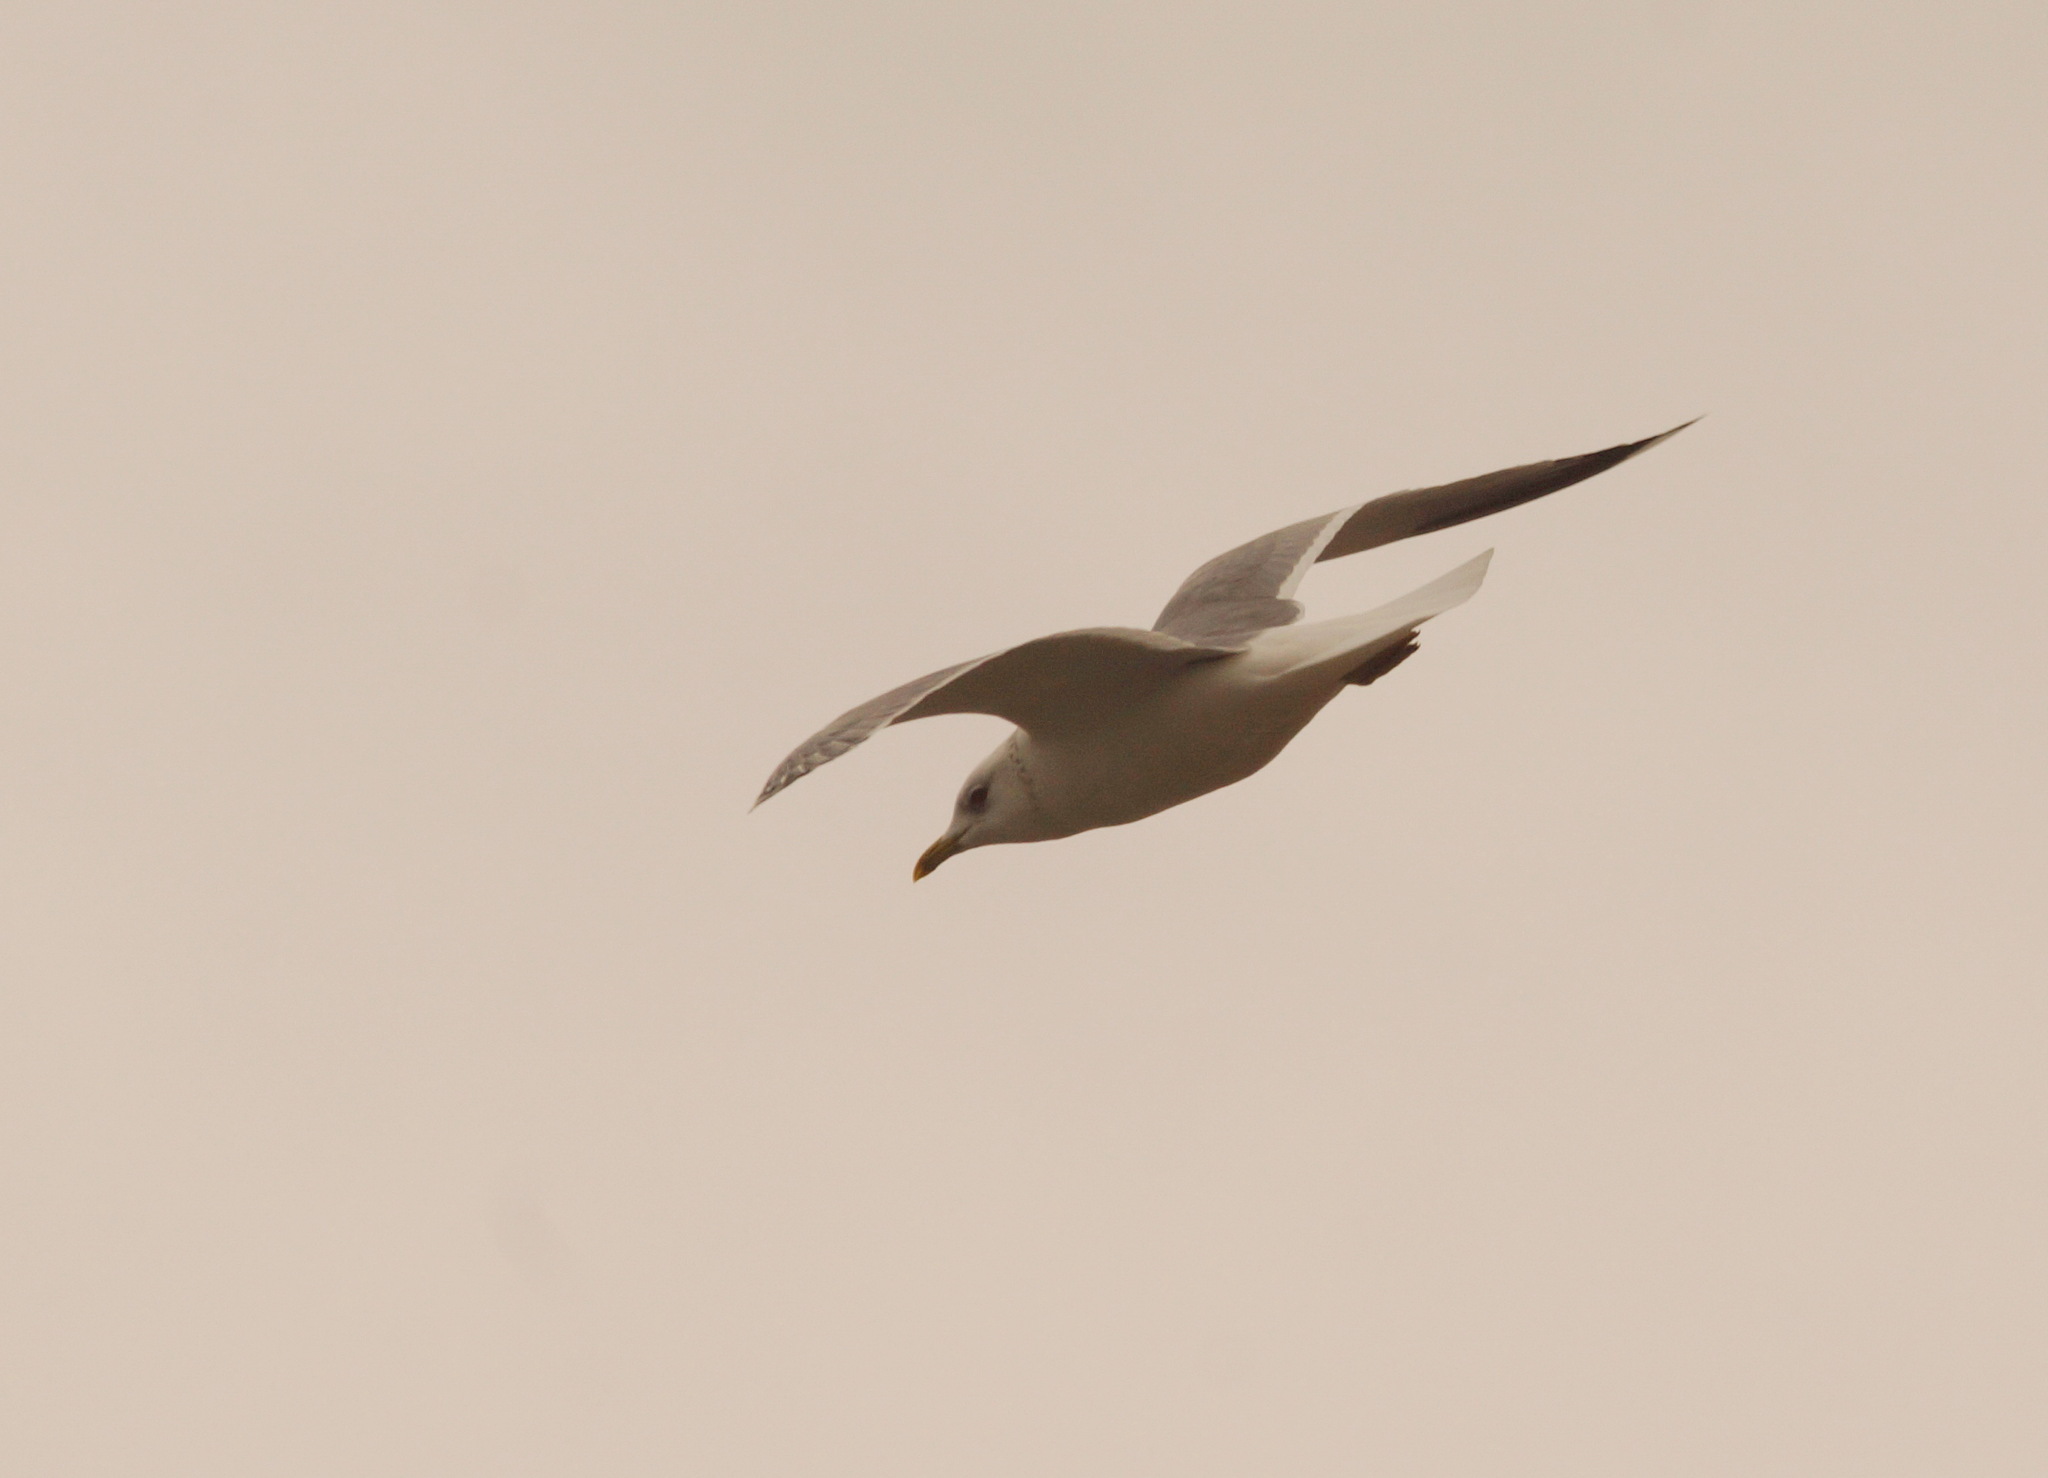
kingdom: Animalia
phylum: Chordata
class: Aves
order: Charadriiformes
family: Laridae
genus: Larus
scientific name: Larus canus
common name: Mew gull
